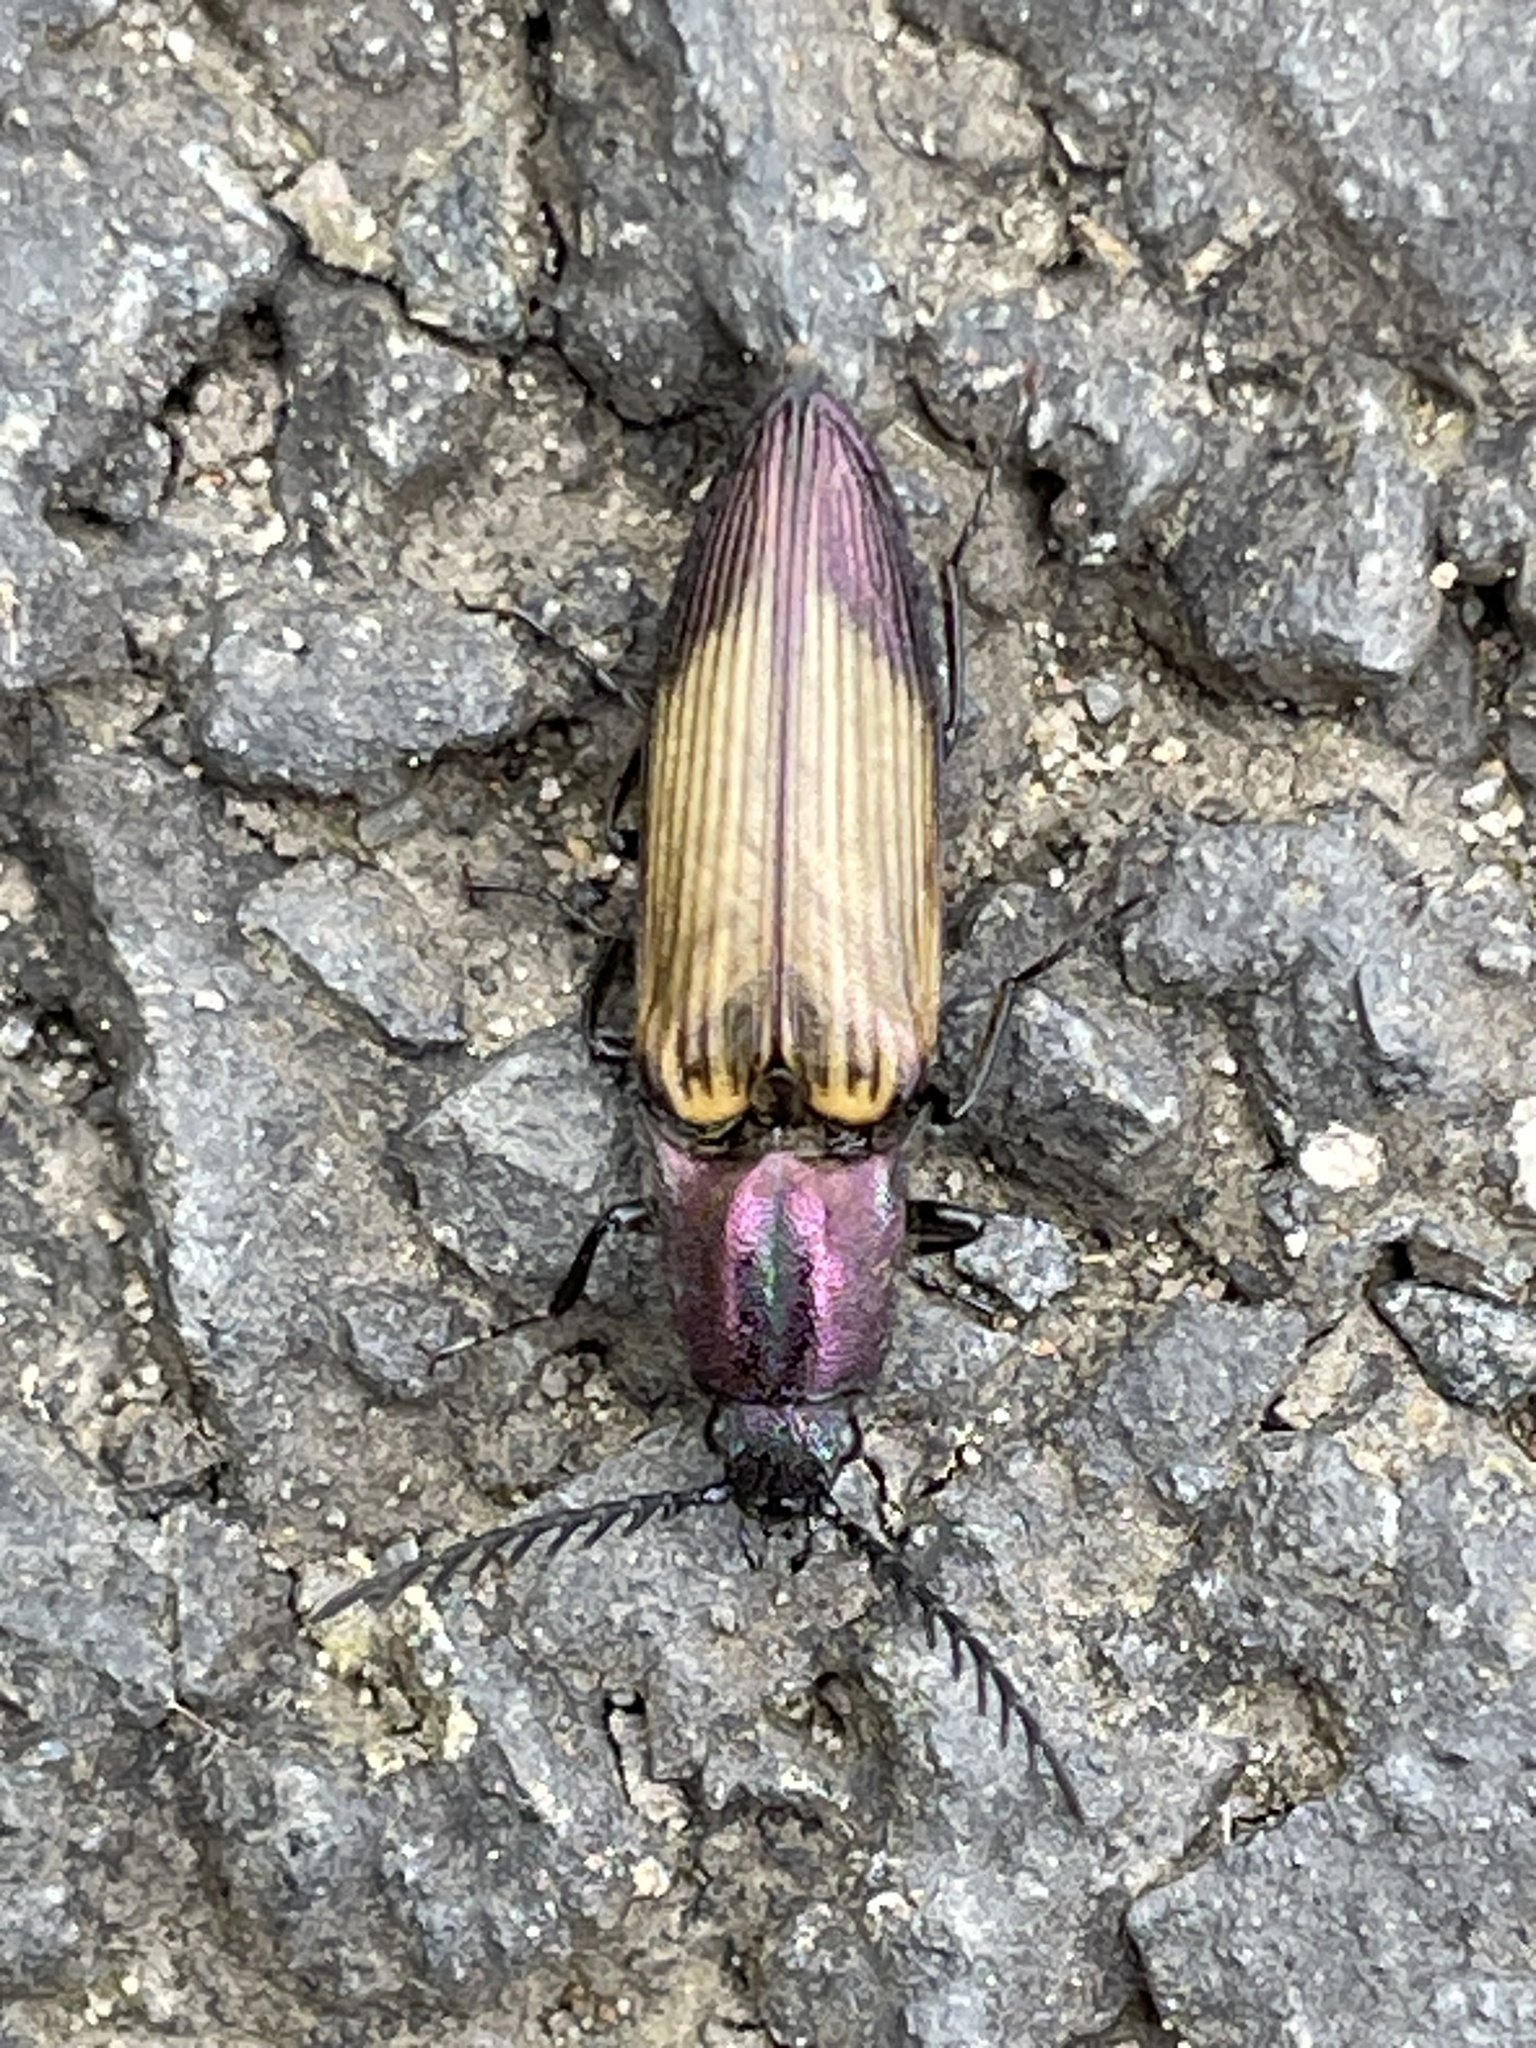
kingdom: Animalia
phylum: Arthropoda
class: Insecta
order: Coleoptera
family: Elateridae
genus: Ctenicera
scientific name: Ctenicera cuprea
